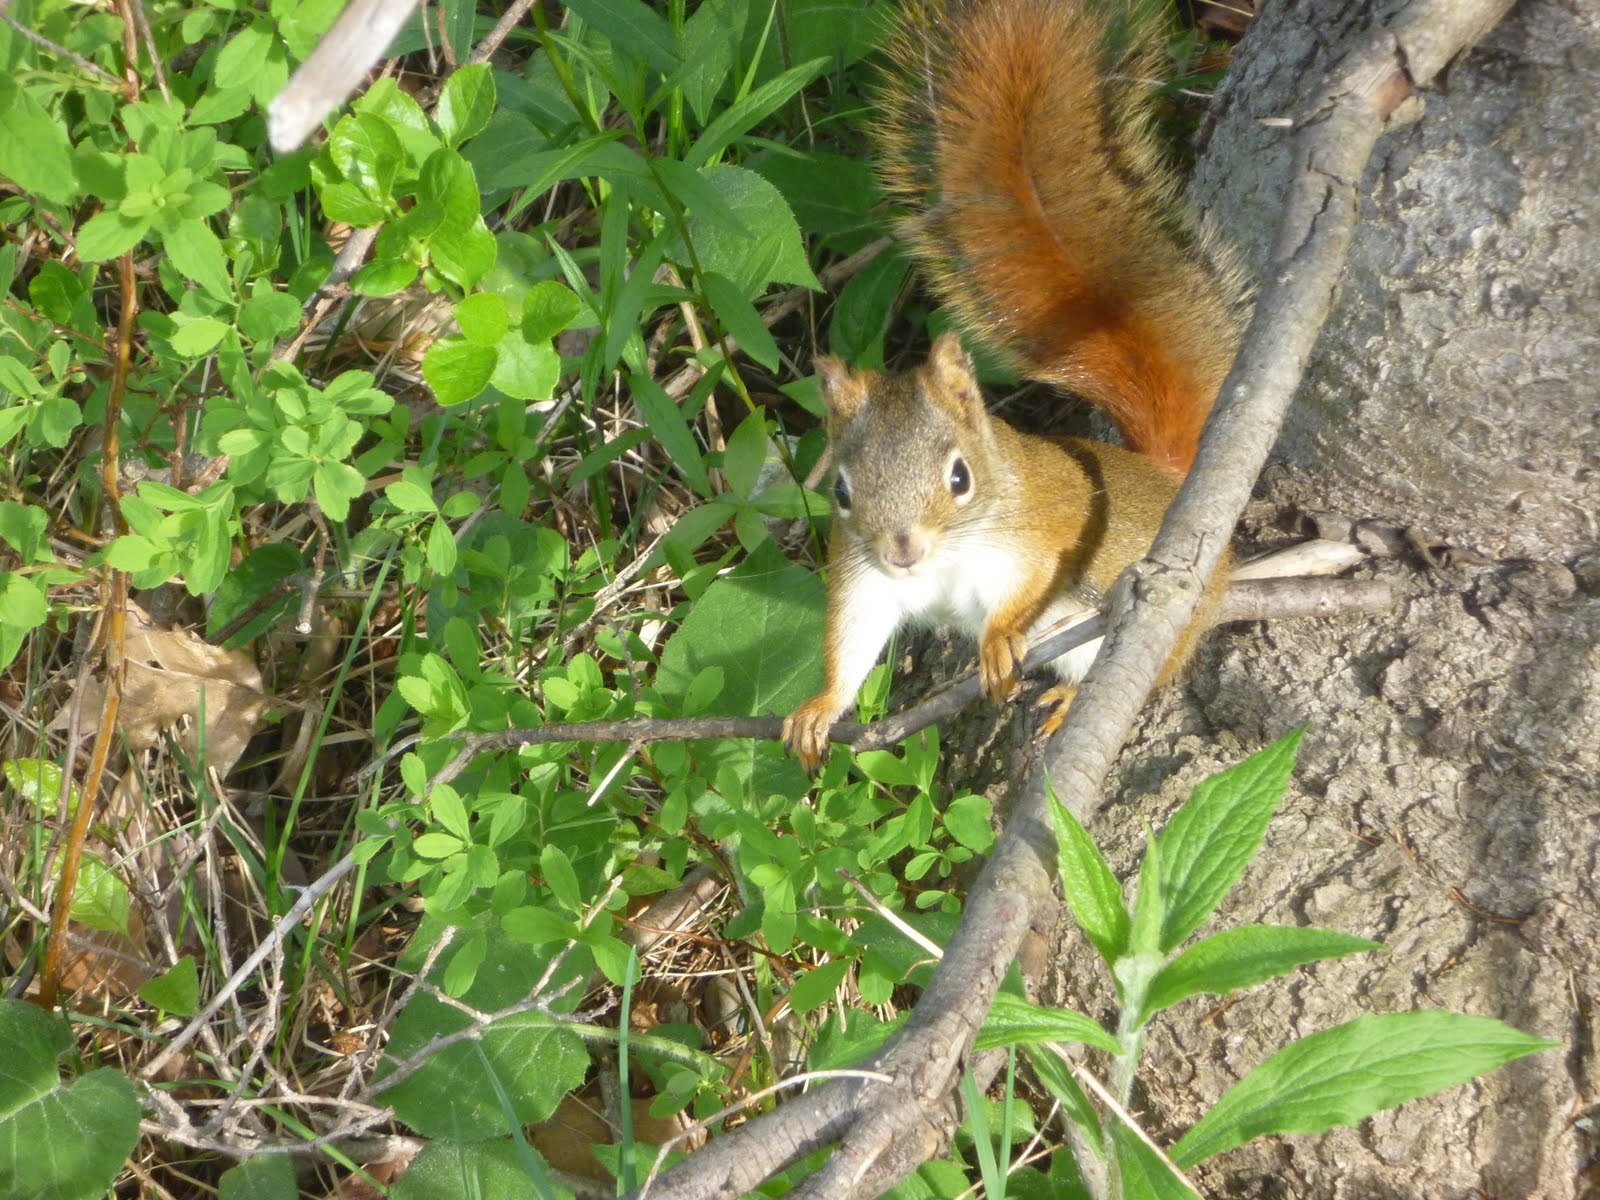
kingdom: Animalia
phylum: Chordata
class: Mammalia
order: Rodentia
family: Sciuridae
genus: Tamiasciurus
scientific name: Tamiasciurus hudsonicus
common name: Red squirrel
